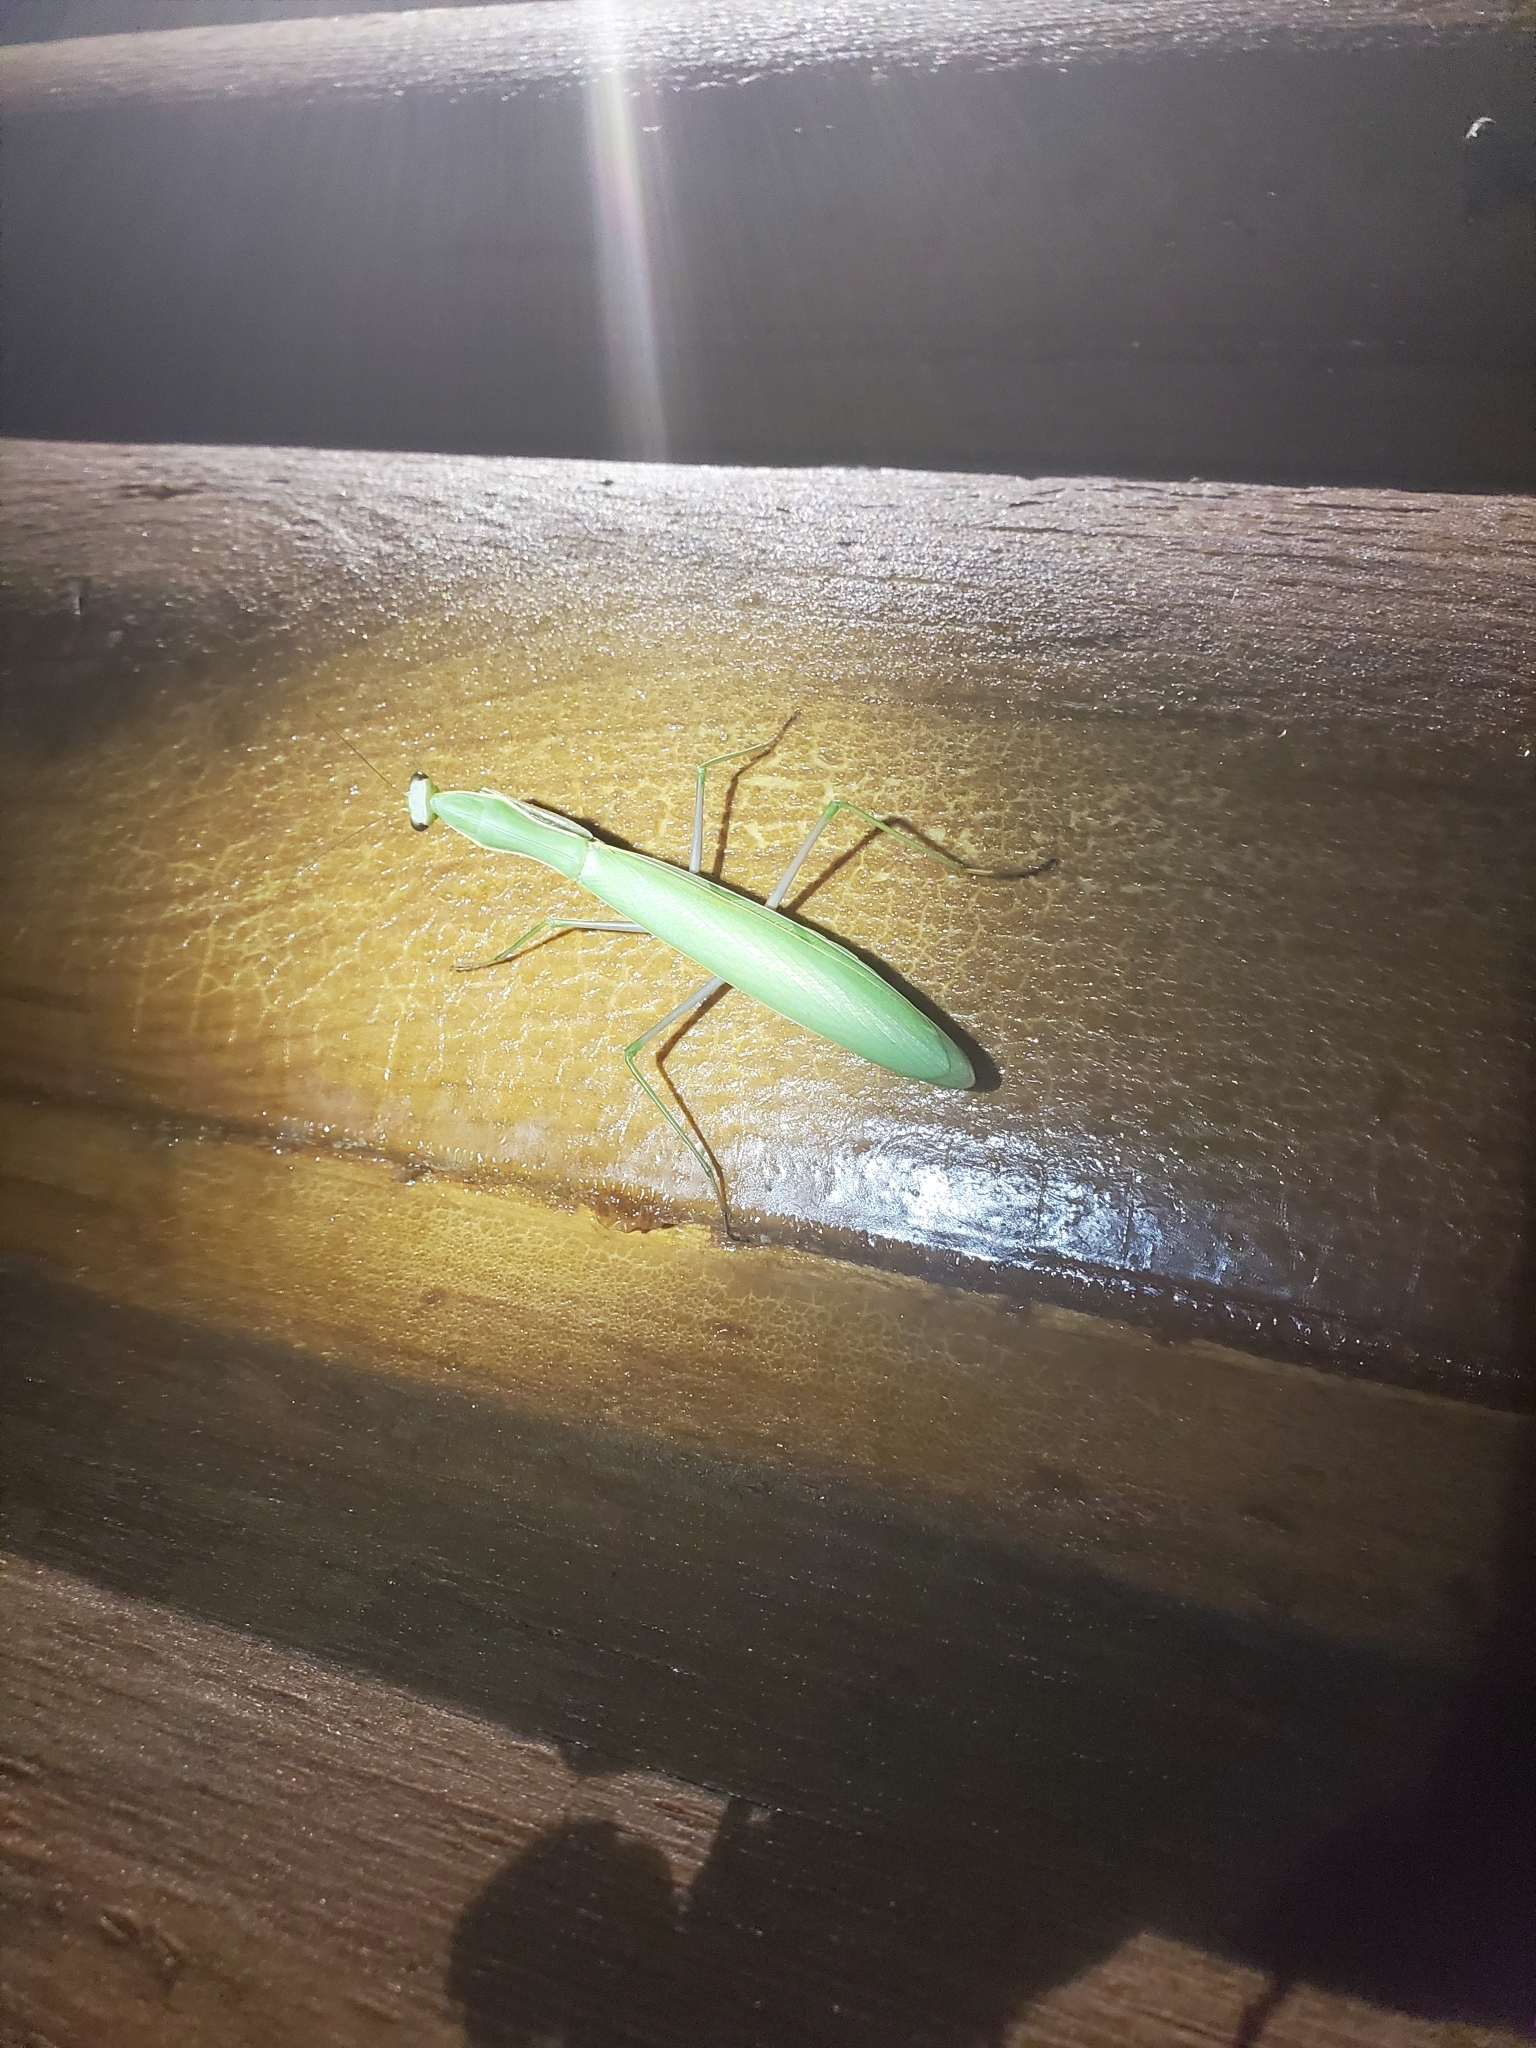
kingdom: Animalia
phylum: Arthropoda
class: Insecta
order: Mantodea
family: Mantidae
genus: Mantis
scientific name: Mantis religiosa
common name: Praying mantis
